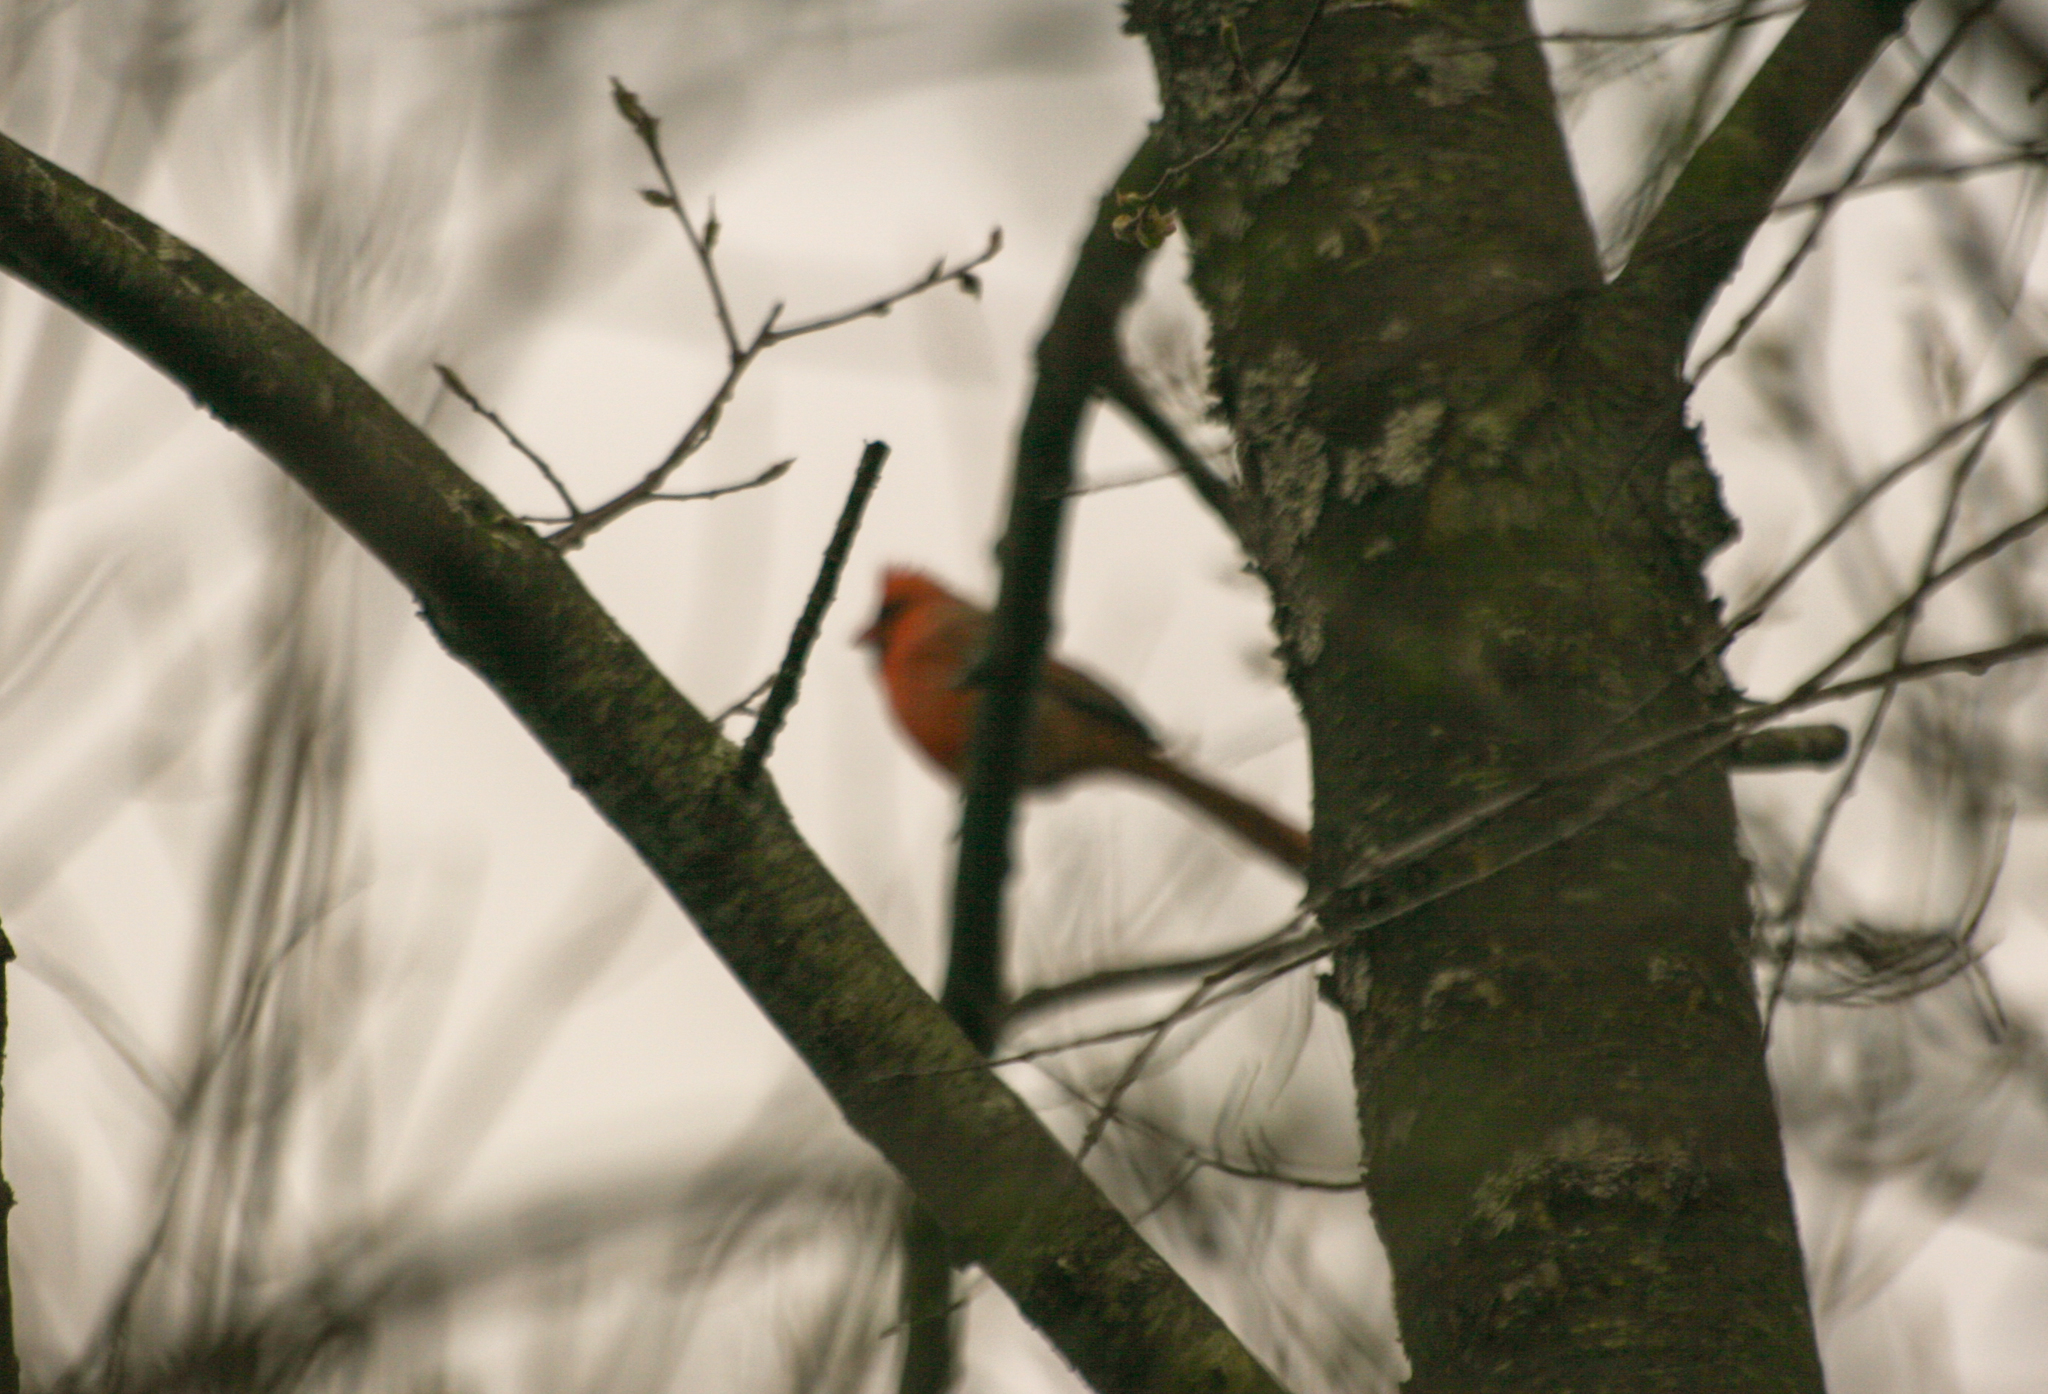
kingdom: Animalia
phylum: Chordata
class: Aves
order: Passeriformes
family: Cardinalidae
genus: Cardinalis
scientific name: Cardinalis cardinalis
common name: Northern cardinal
